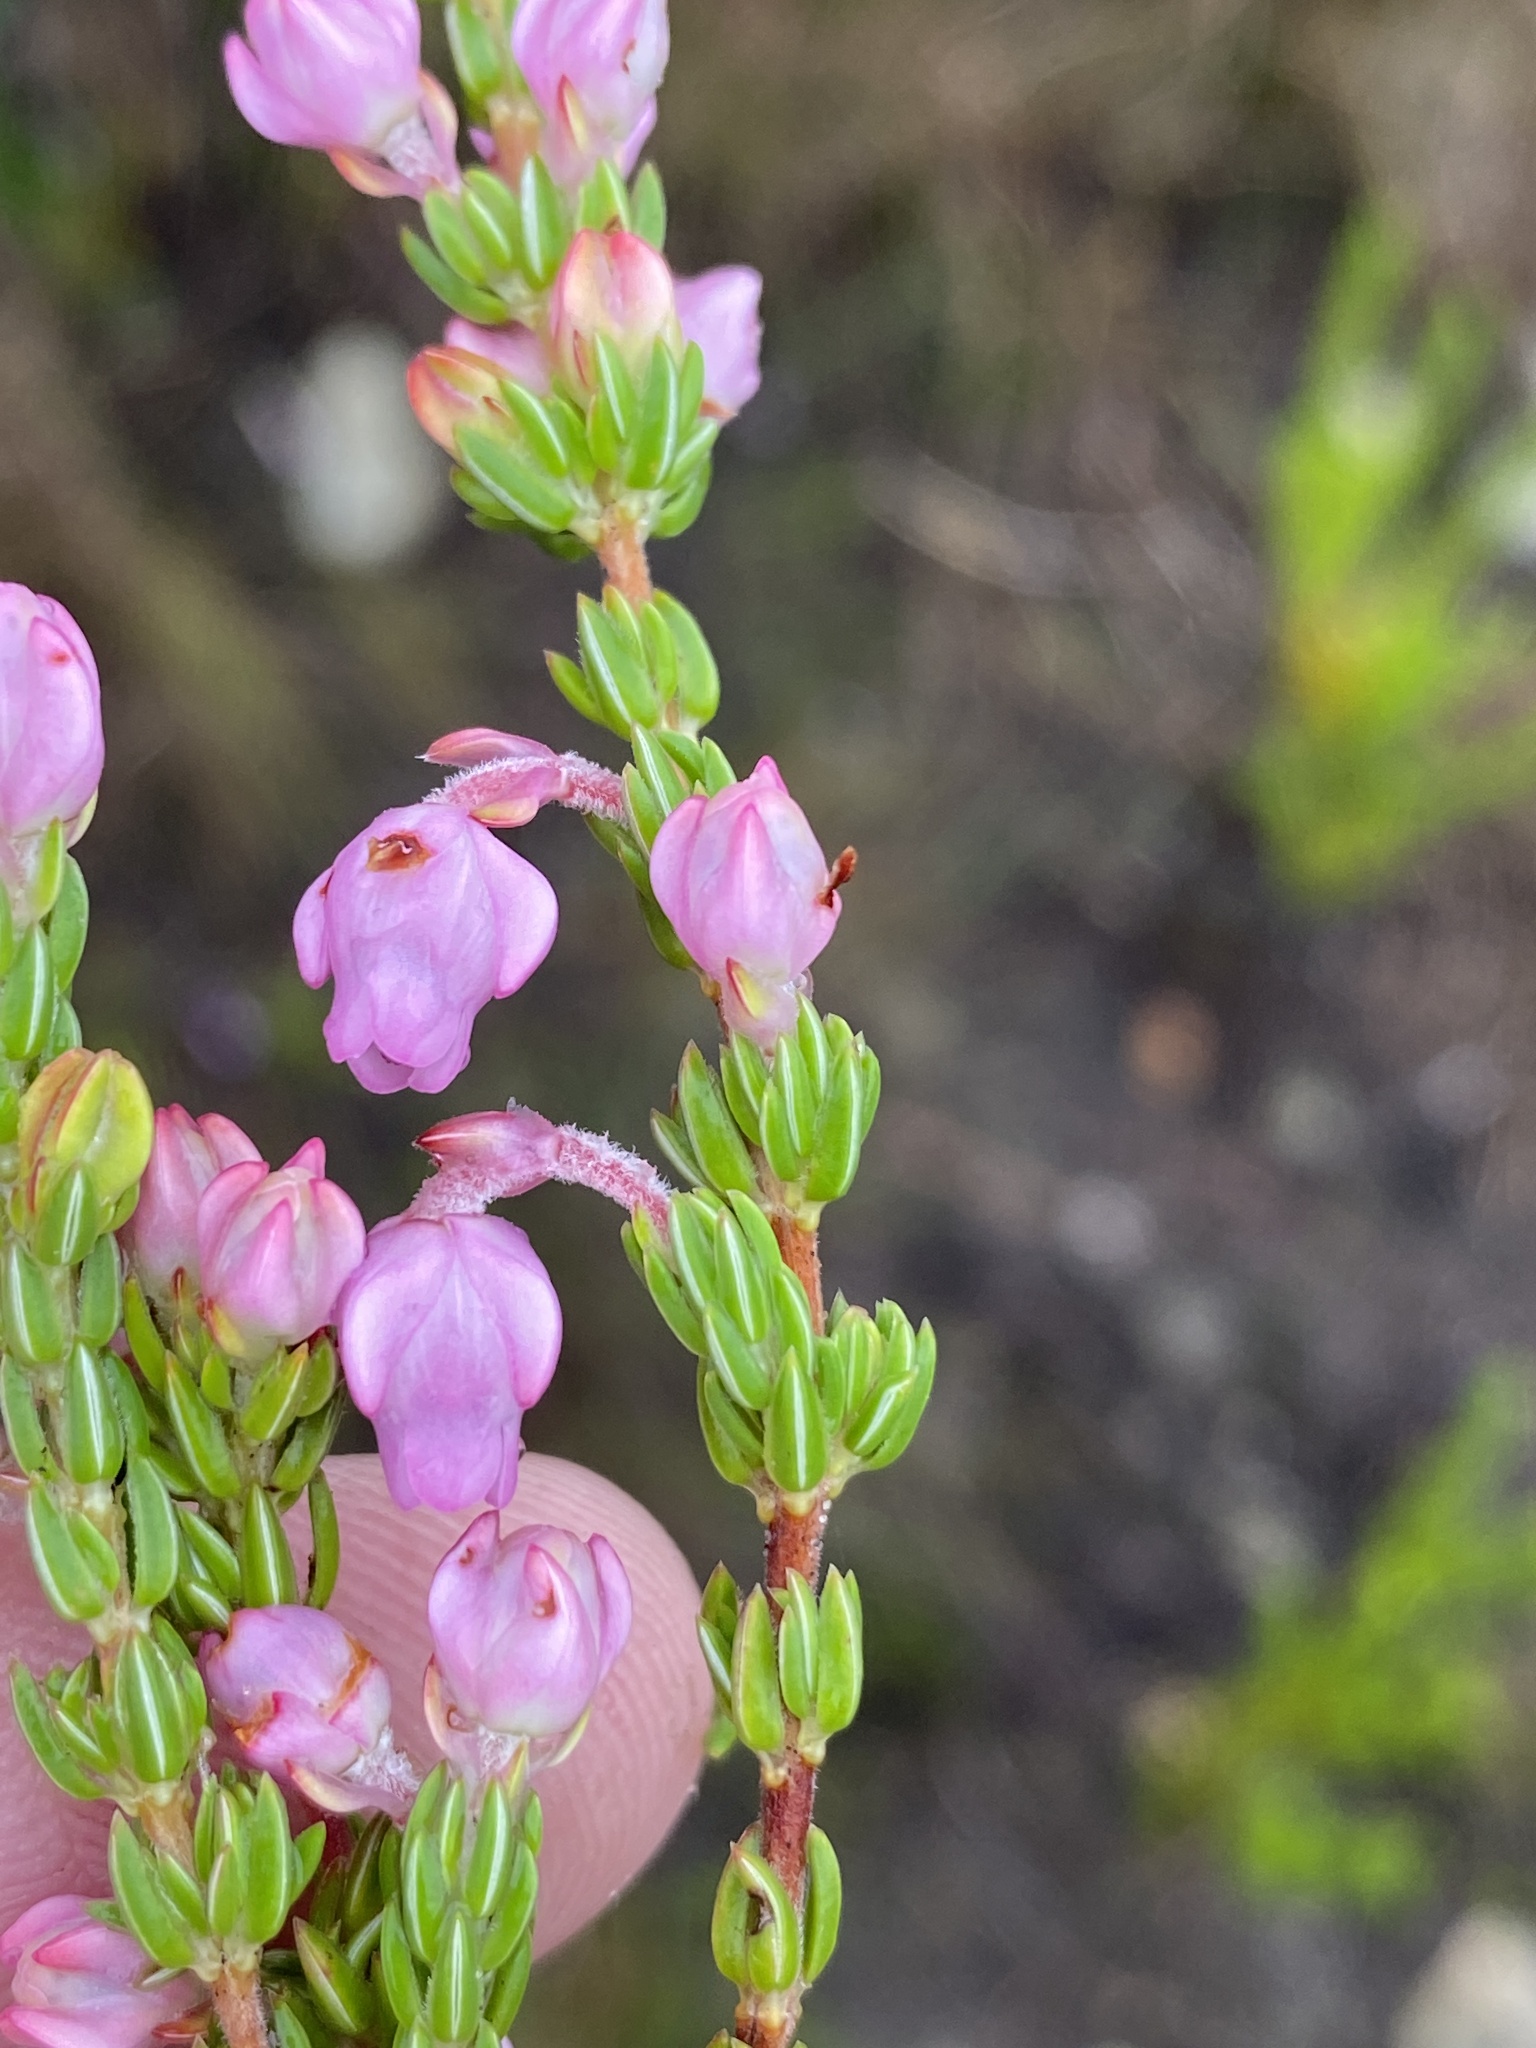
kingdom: Plantae
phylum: Tracheophyta
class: Magnoliopsida
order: Ericales
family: Ericaceae
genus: Erica
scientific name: Erica irregularis
